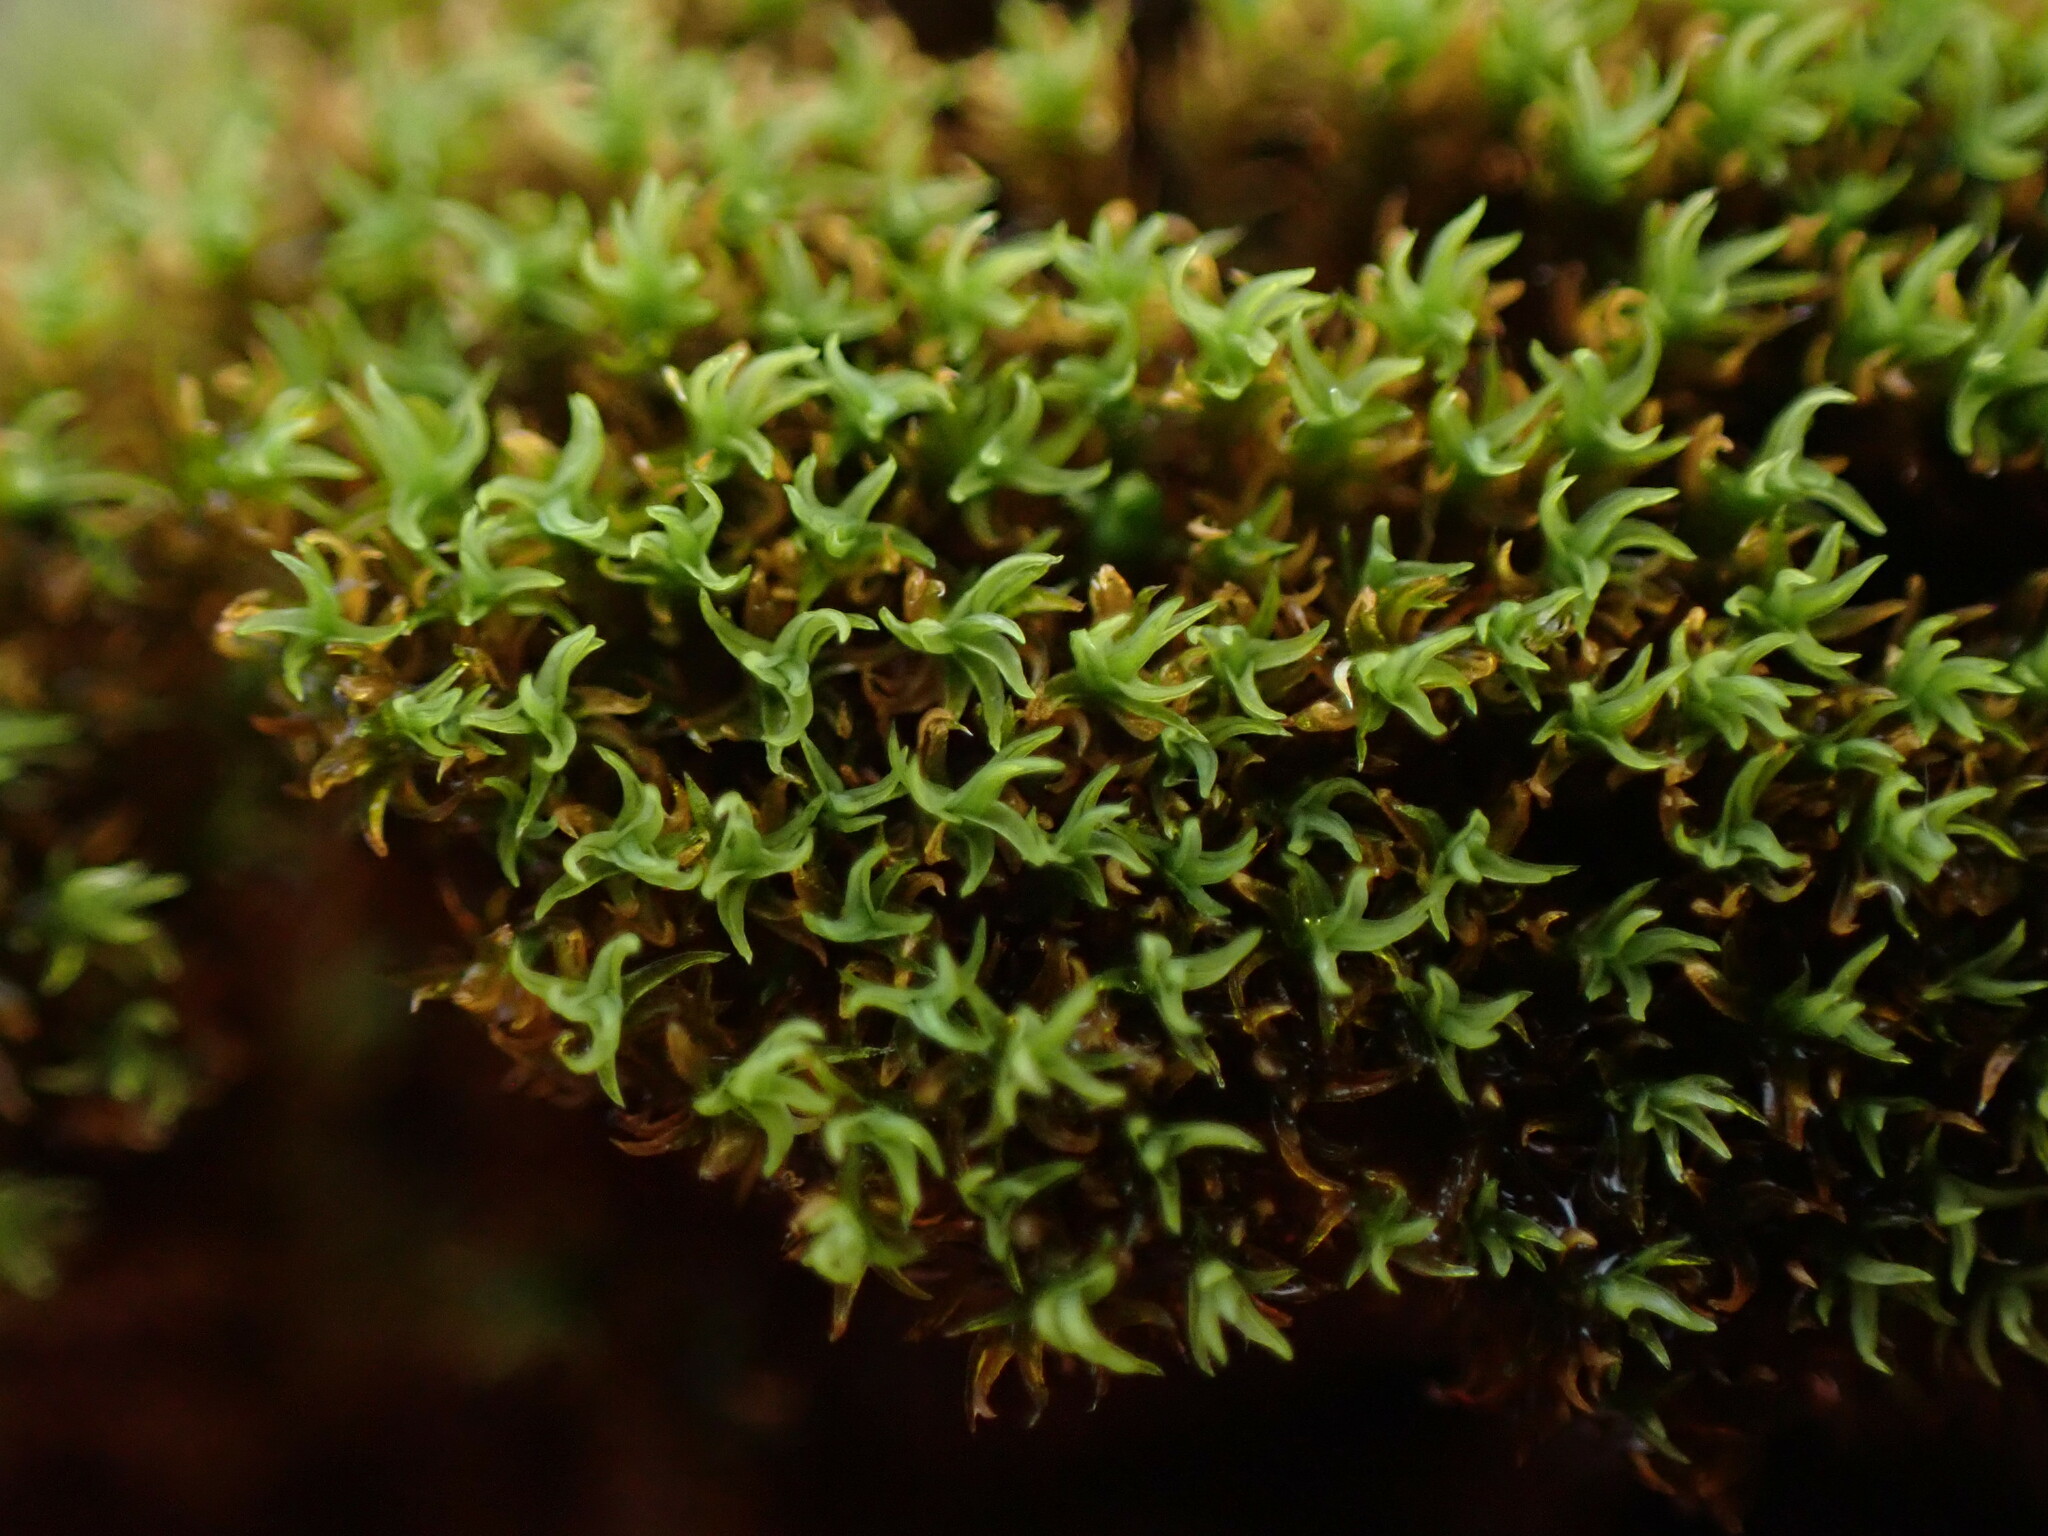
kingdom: Plantae
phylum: Bryophyta
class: Bryopsida
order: Grimmiales
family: Grimmiaceae
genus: Grimmia
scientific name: Grimmia torquata
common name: Twisted grimmia
